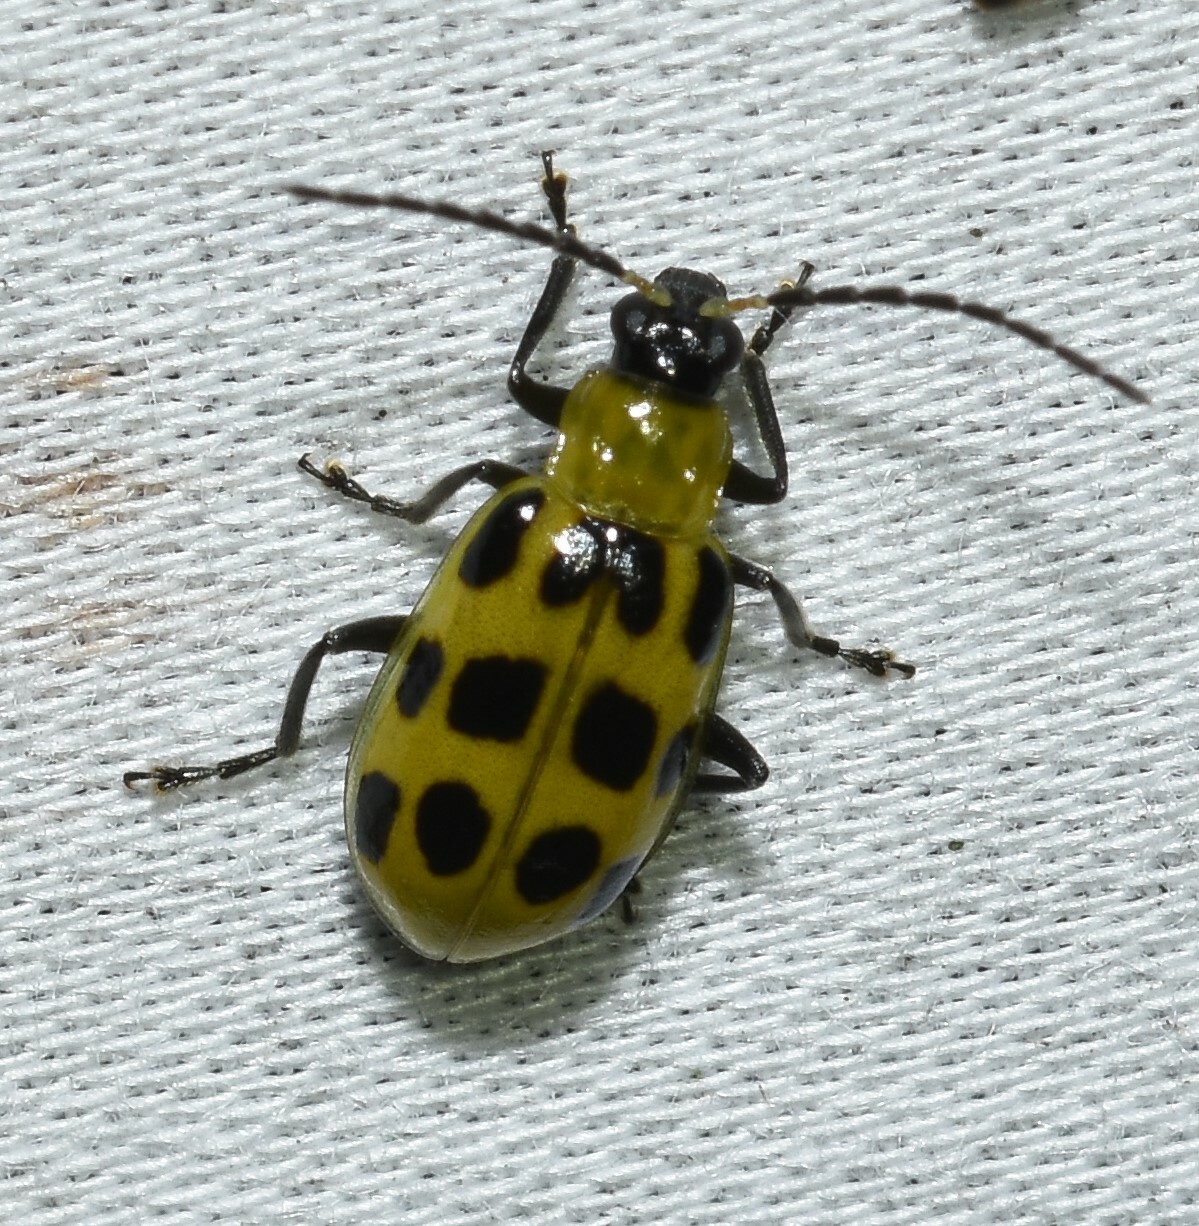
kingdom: Animalia
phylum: Arthropoda
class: Insecta
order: Coleoptera
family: Chrysomelidae
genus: Diabrotica
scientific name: Diabrotica undecimpunctata
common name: Spotted cucumber beetle
